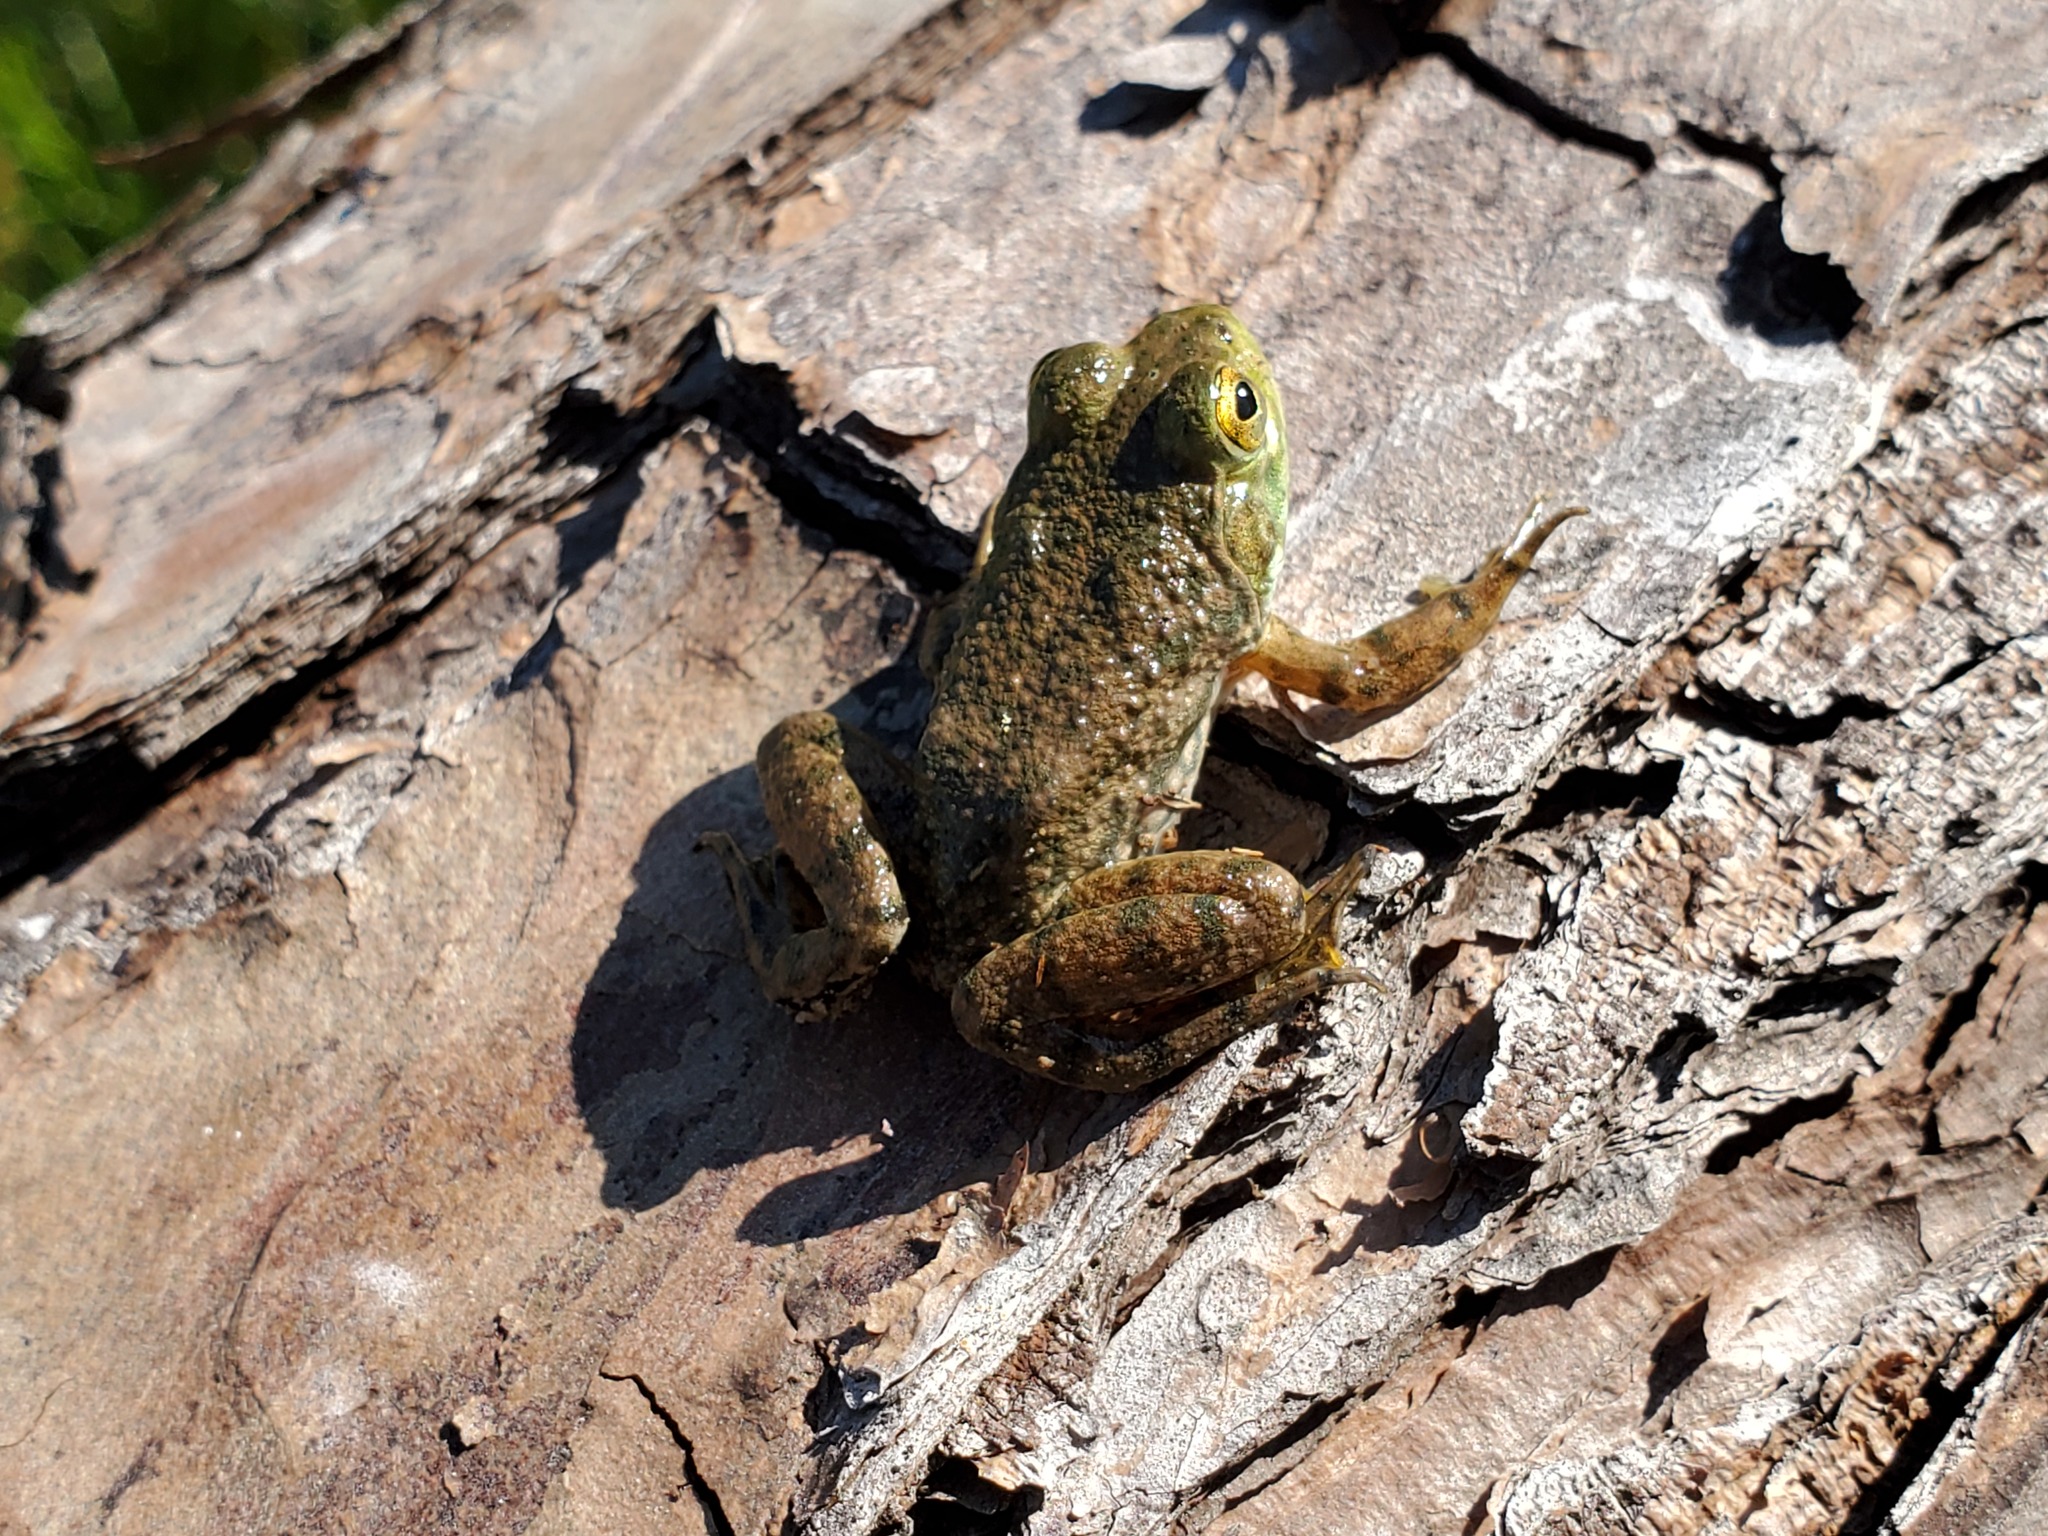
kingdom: Animalia
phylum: Chordata
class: Amphibia
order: Anura
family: Ranidae
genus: Lithobates
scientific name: Lithobates catesbeianus
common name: American bullfrog
